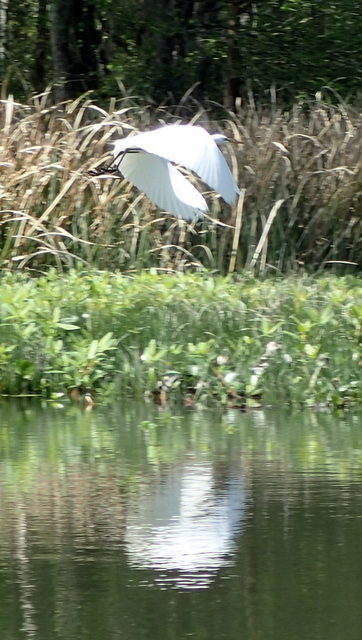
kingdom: Animalia
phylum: Chordata
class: Aves
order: Pelecaniformes
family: Ardeidae
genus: Ardea
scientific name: Ardea alba
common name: Great egret
